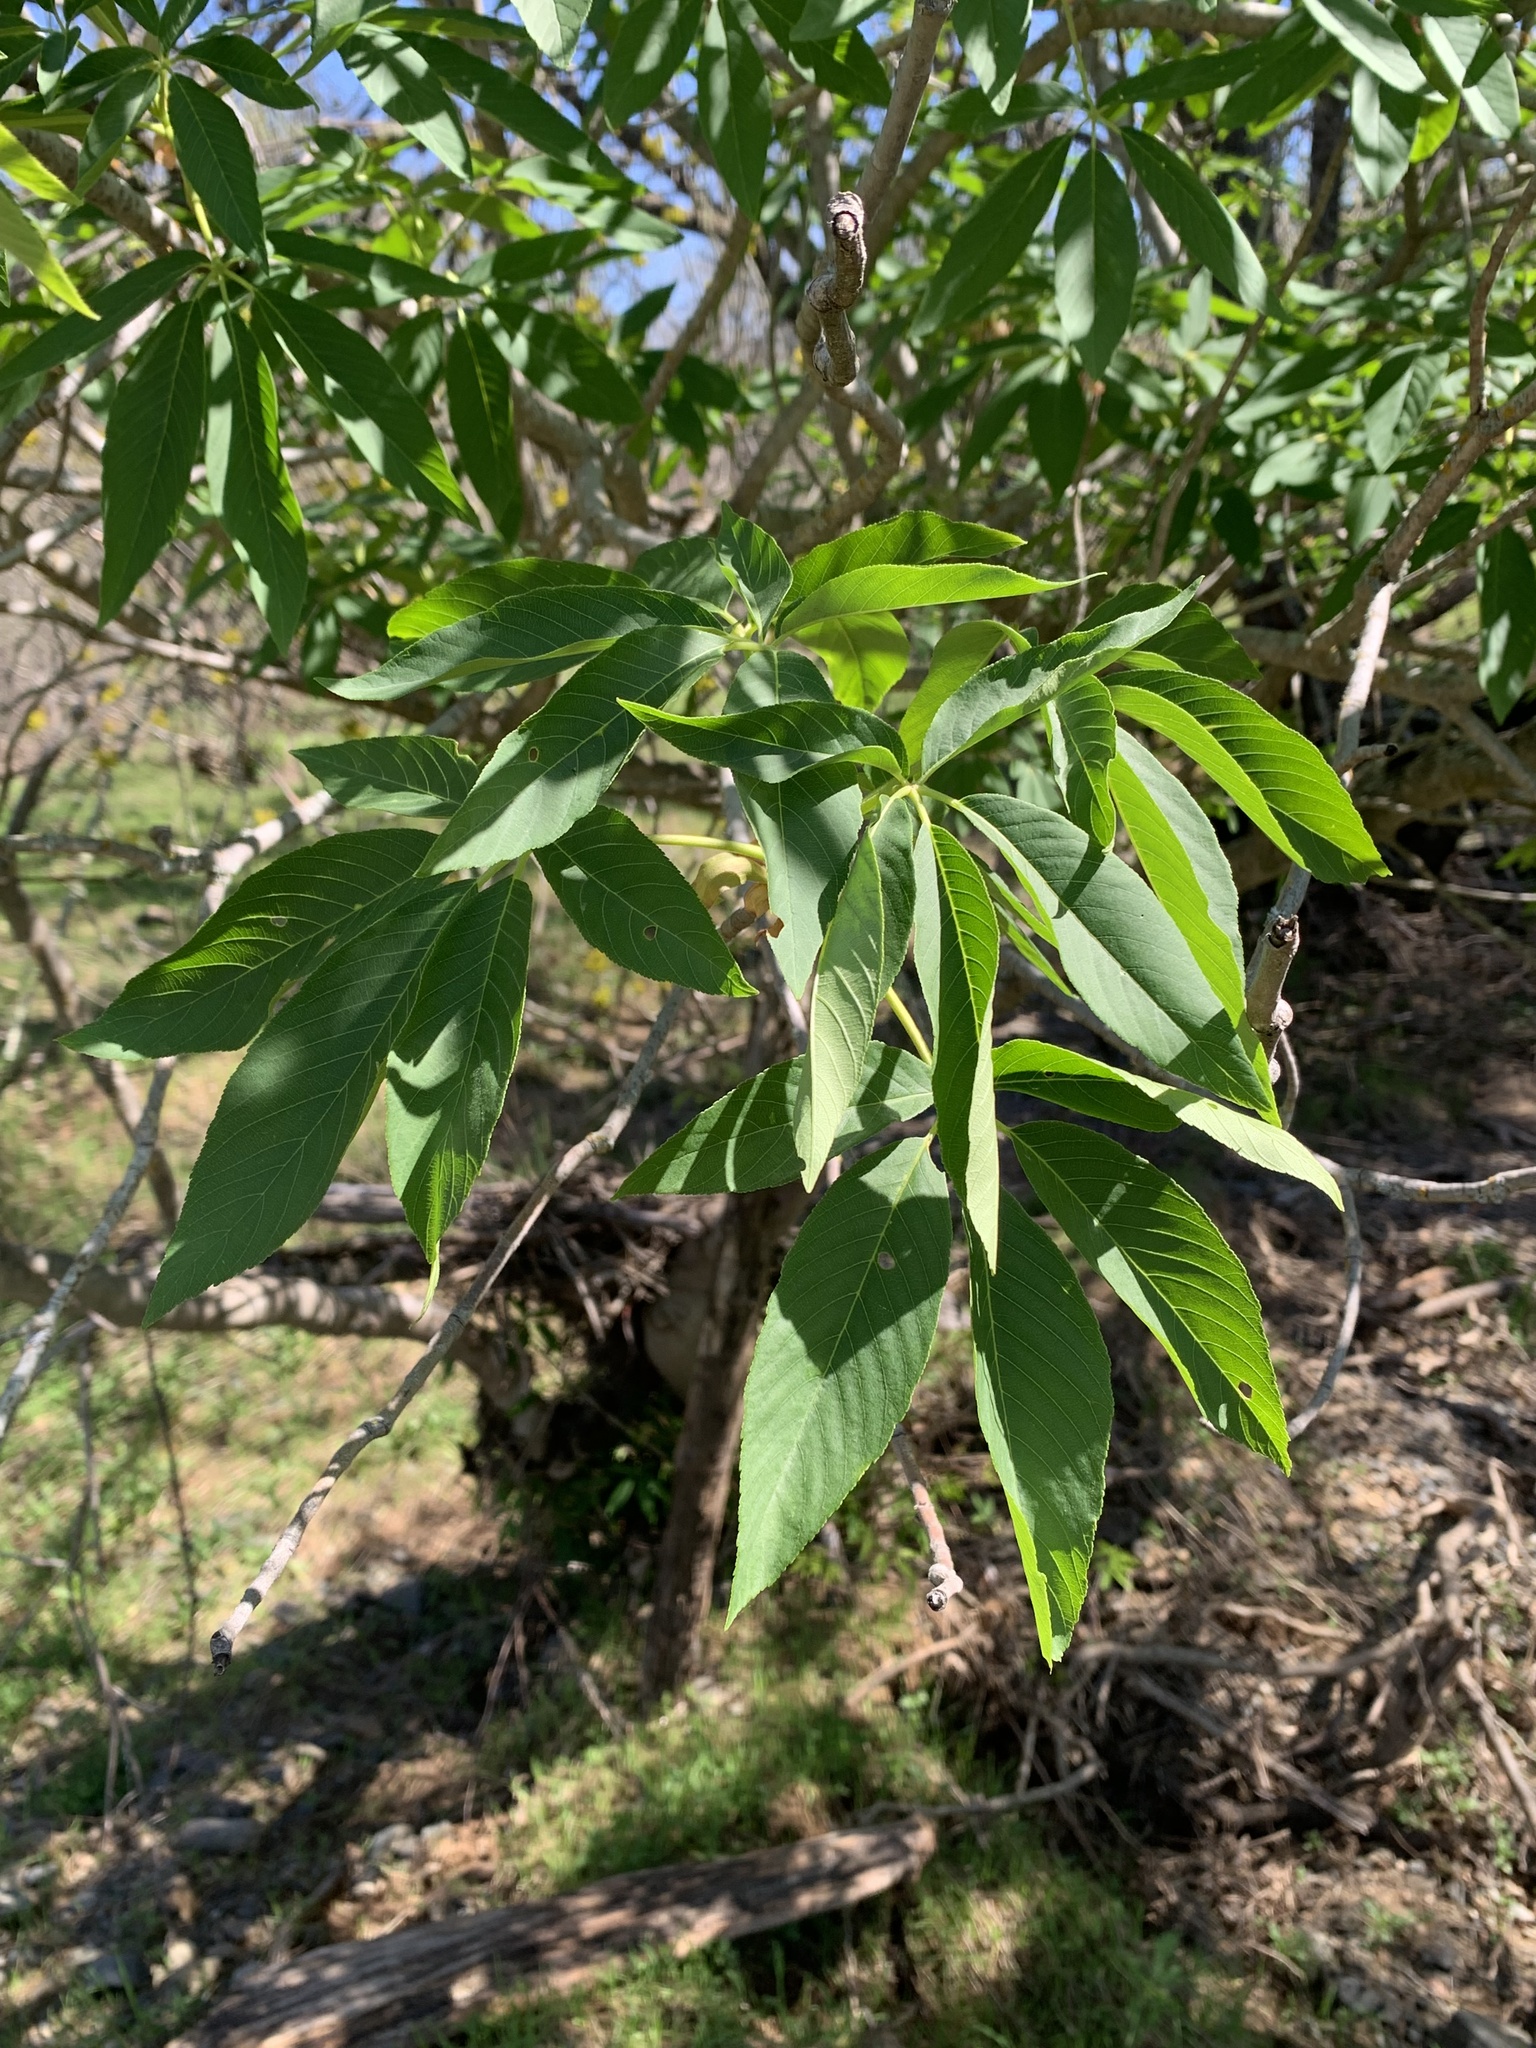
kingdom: Plantae
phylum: Tracheophyta
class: Magnoliopsida
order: Sapindales
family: Sapindaceae
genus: Aesculus
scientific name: Aesculus californica
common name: California buckeye
